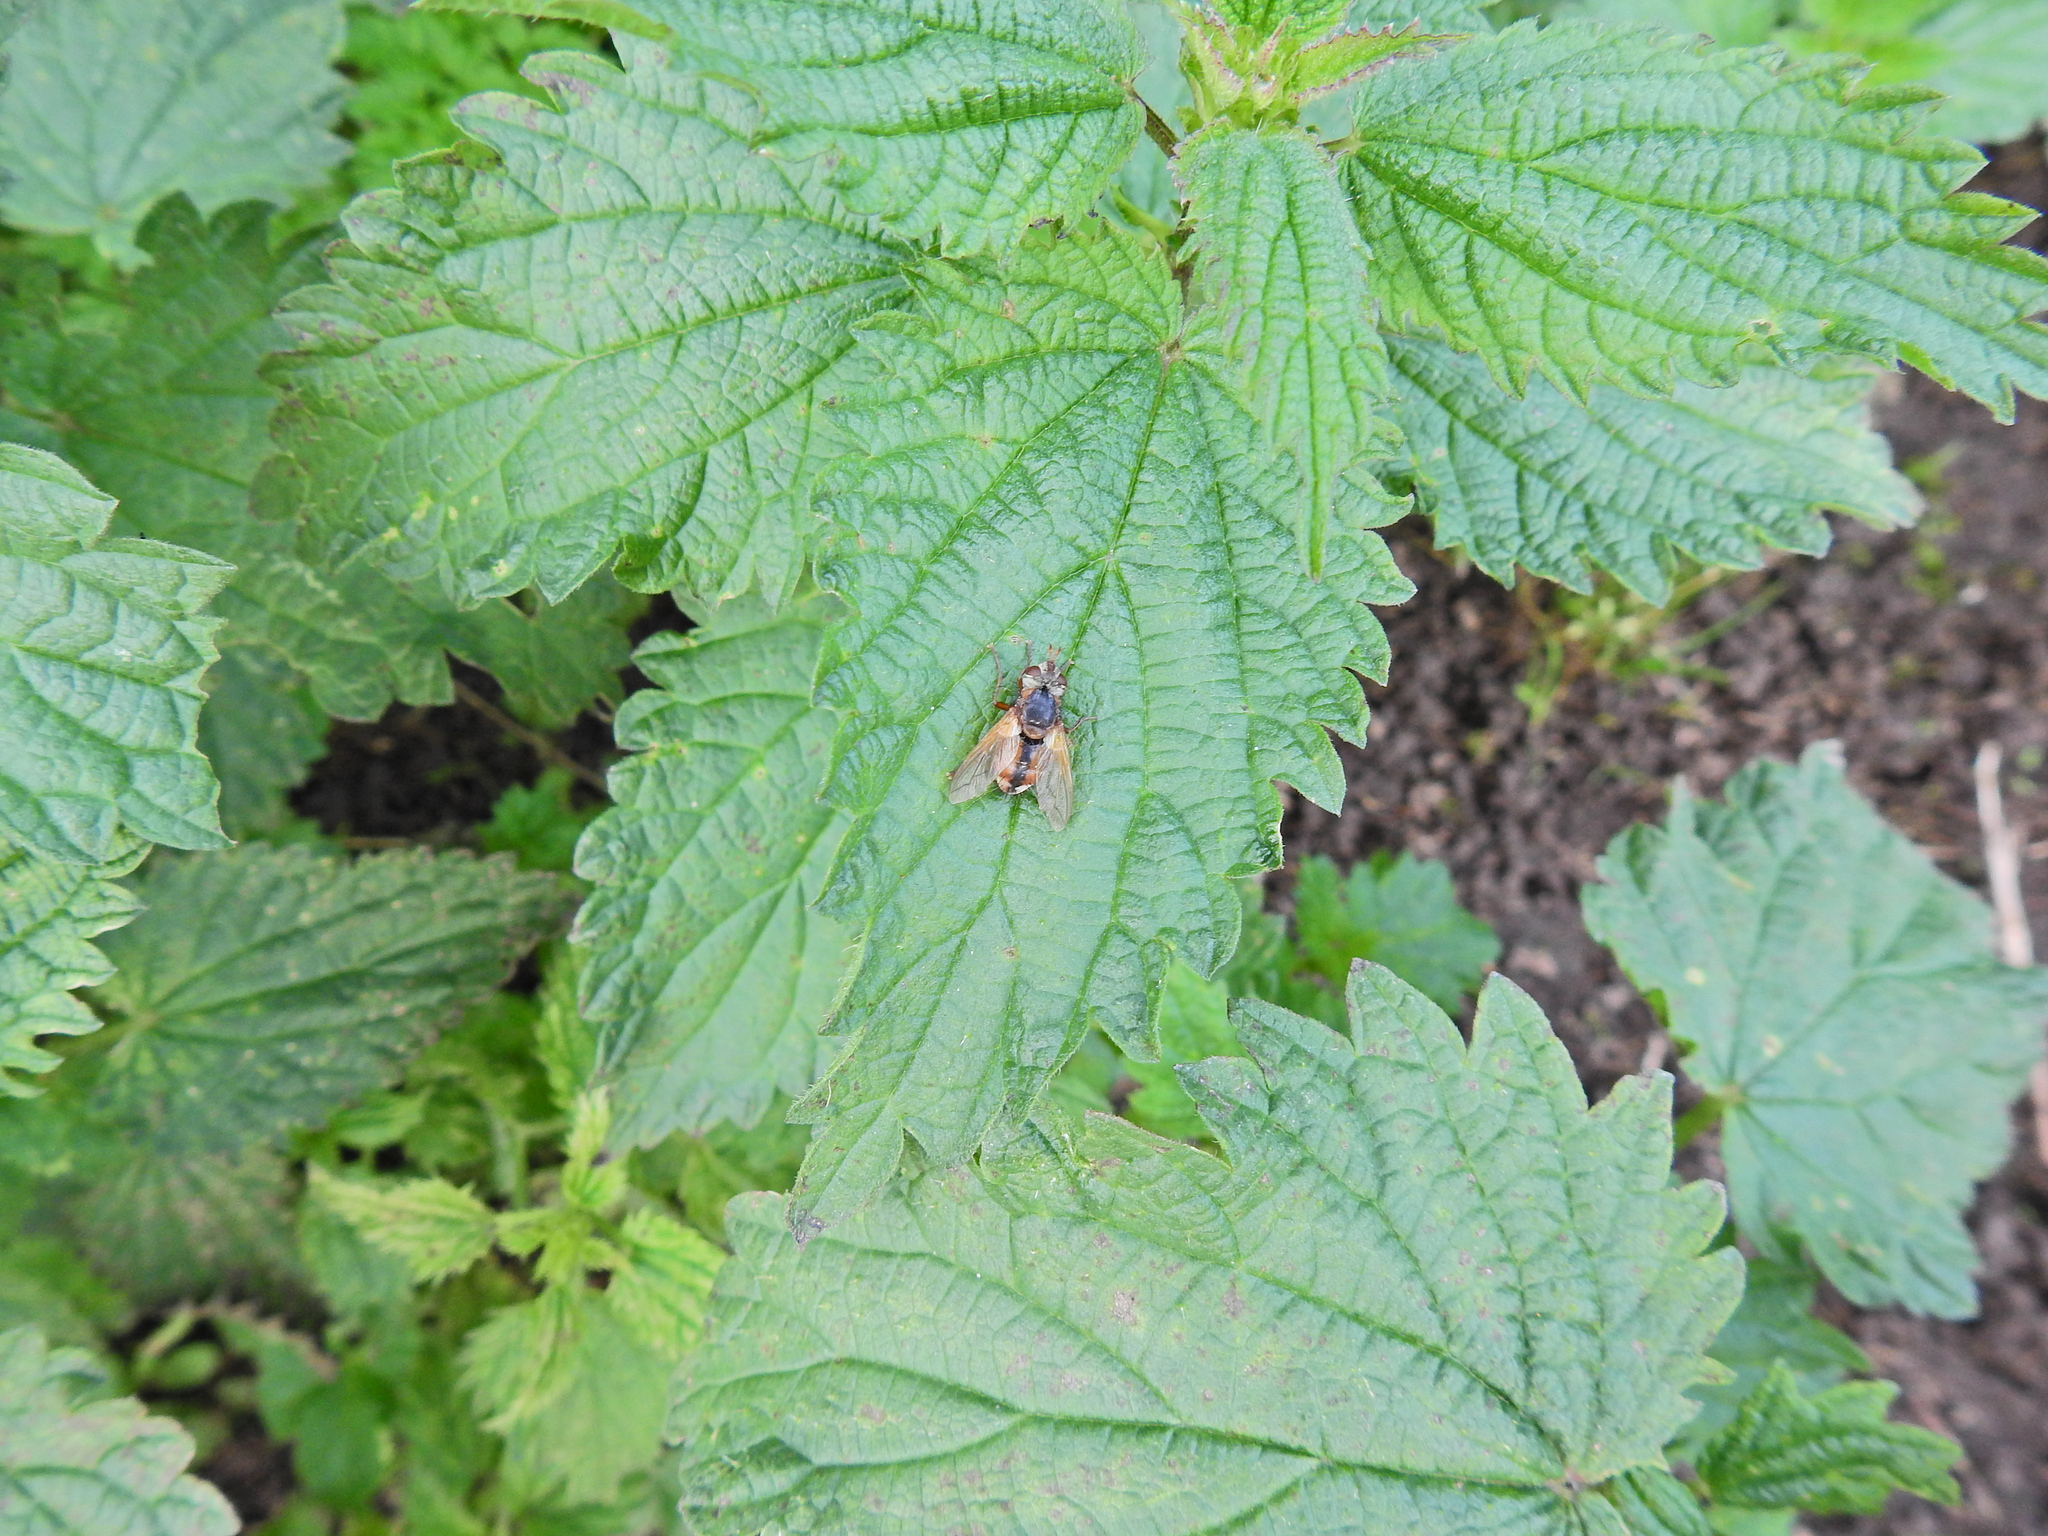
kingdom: Animalia
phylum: Arthropoda
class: Insecta
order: Diptera
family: Tachinidae
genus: Tachina
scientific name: Tachina fera
